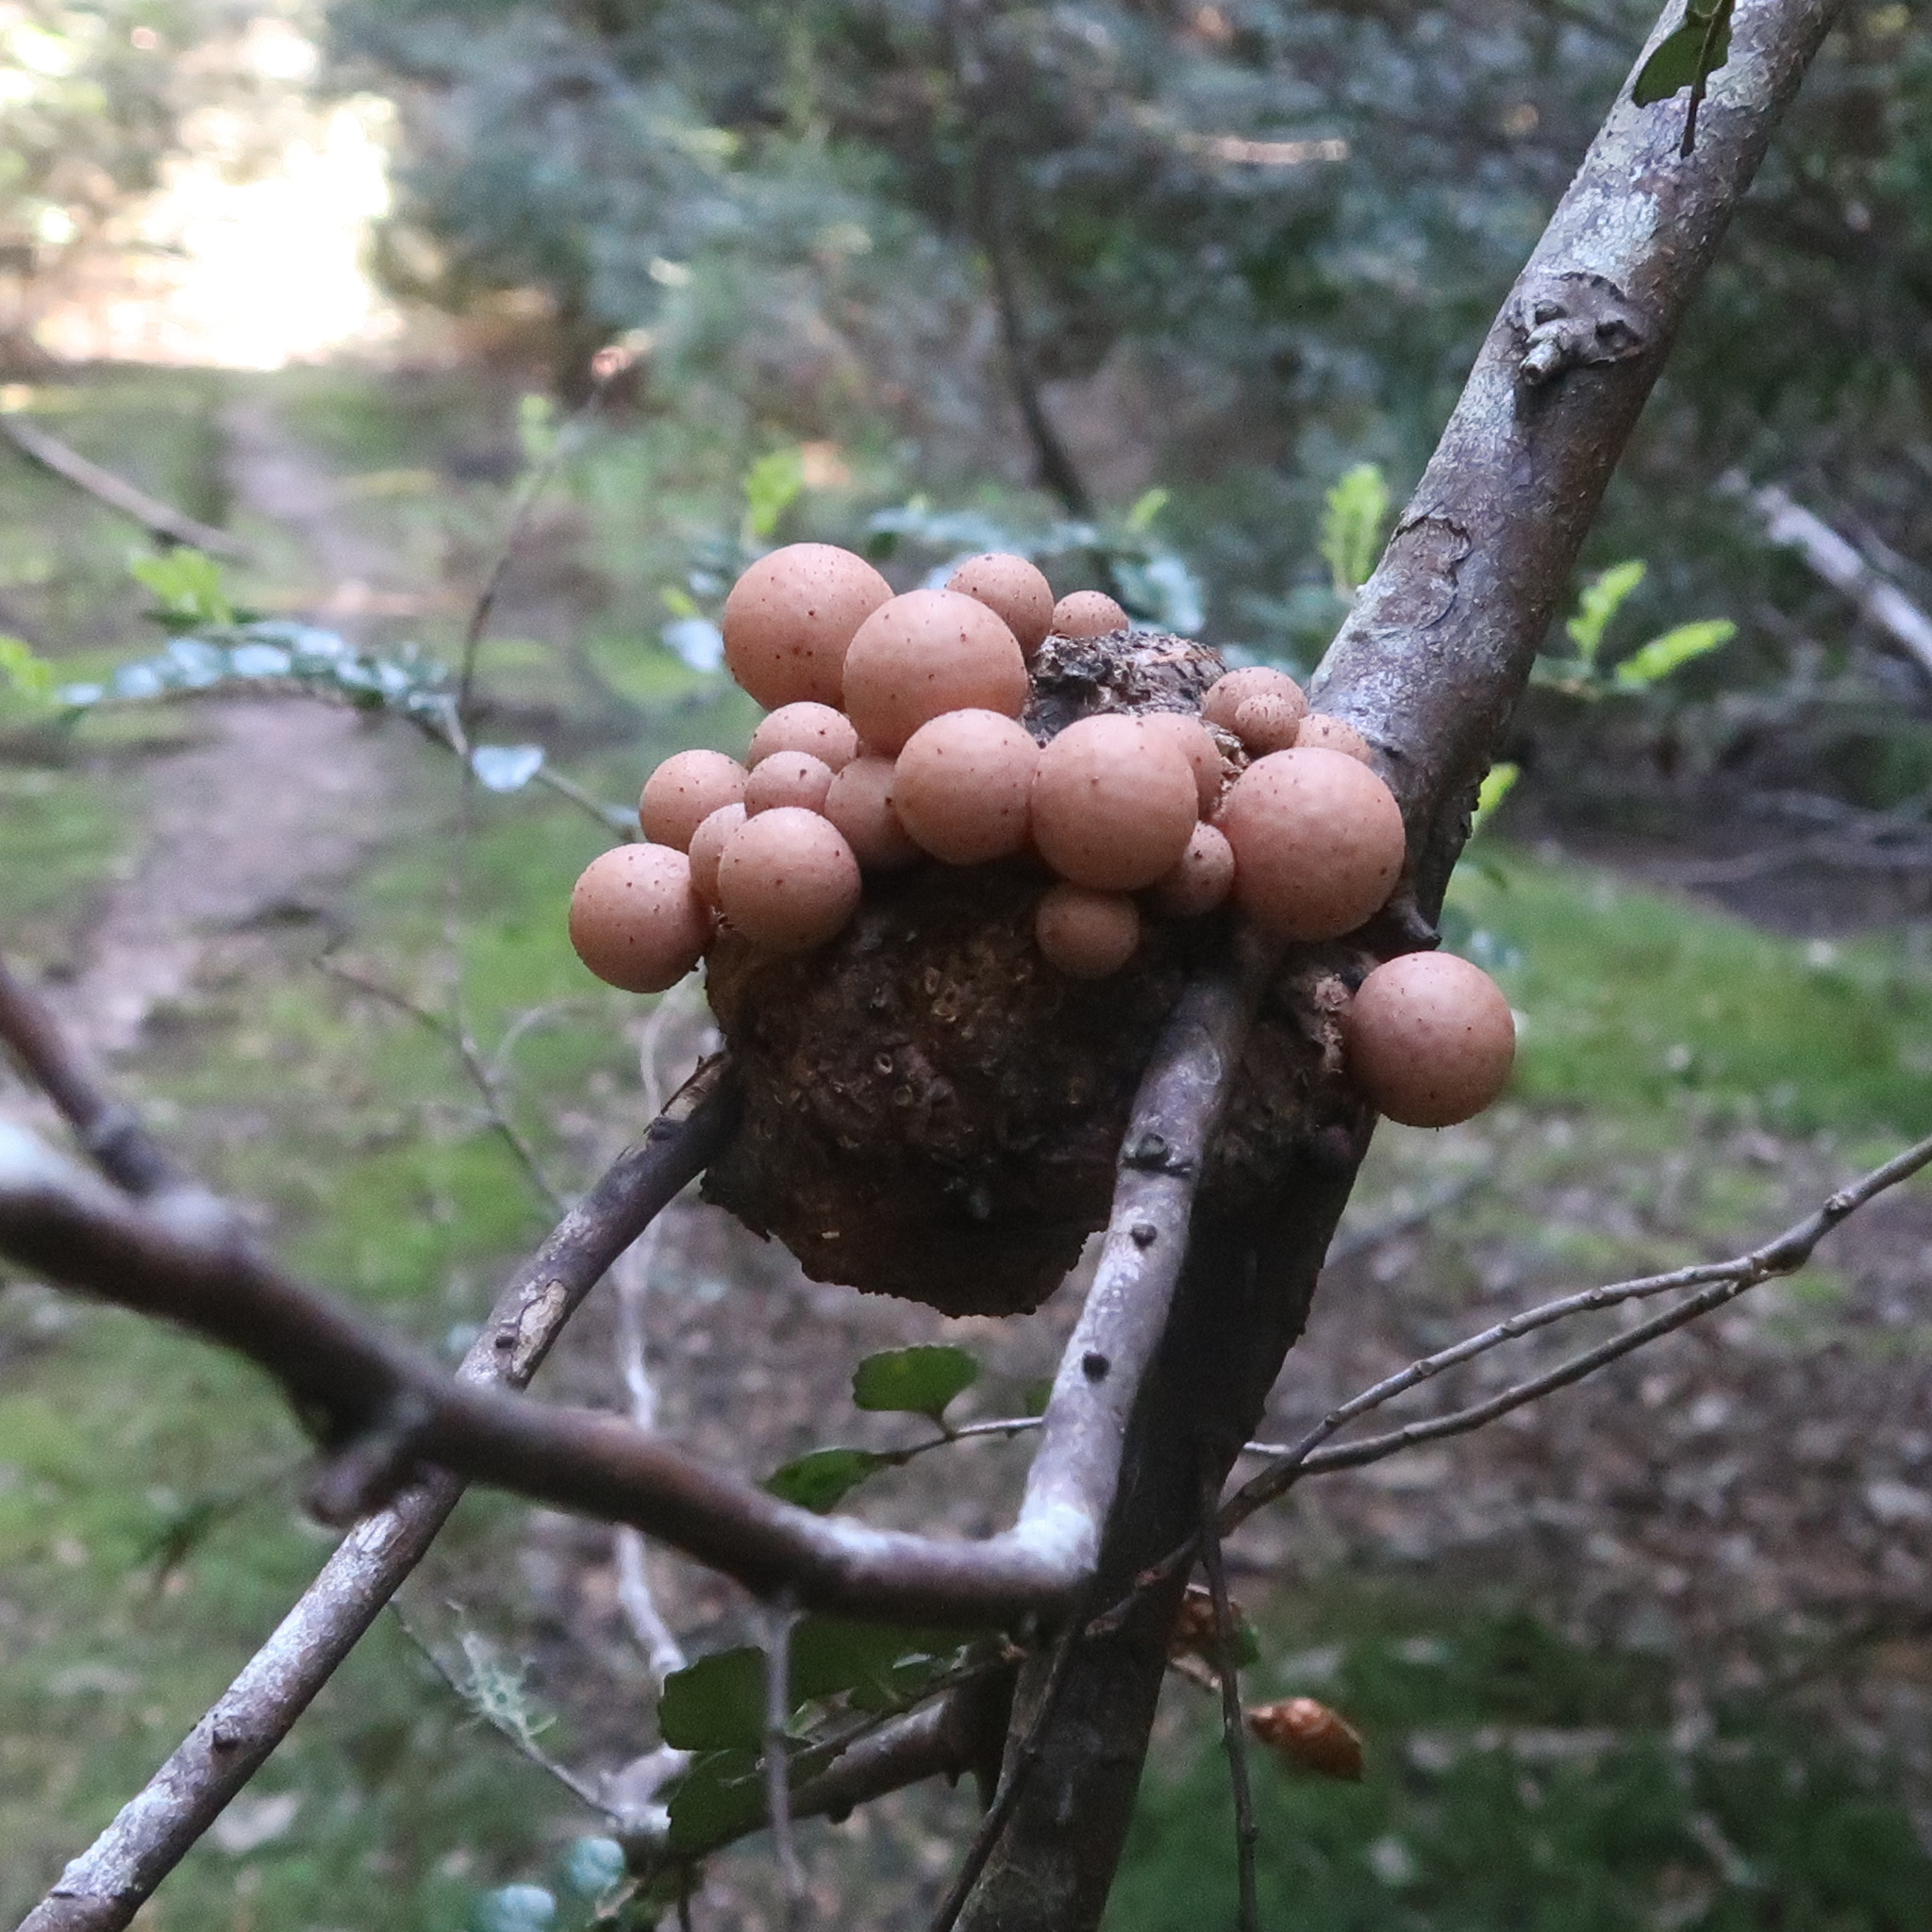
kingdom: Fungi
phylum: Ascomycota
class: Leotiomycetes
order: Cyttariales
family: Cyttariaceae
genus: Cyttaria
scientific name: Cyttaria gunnii
